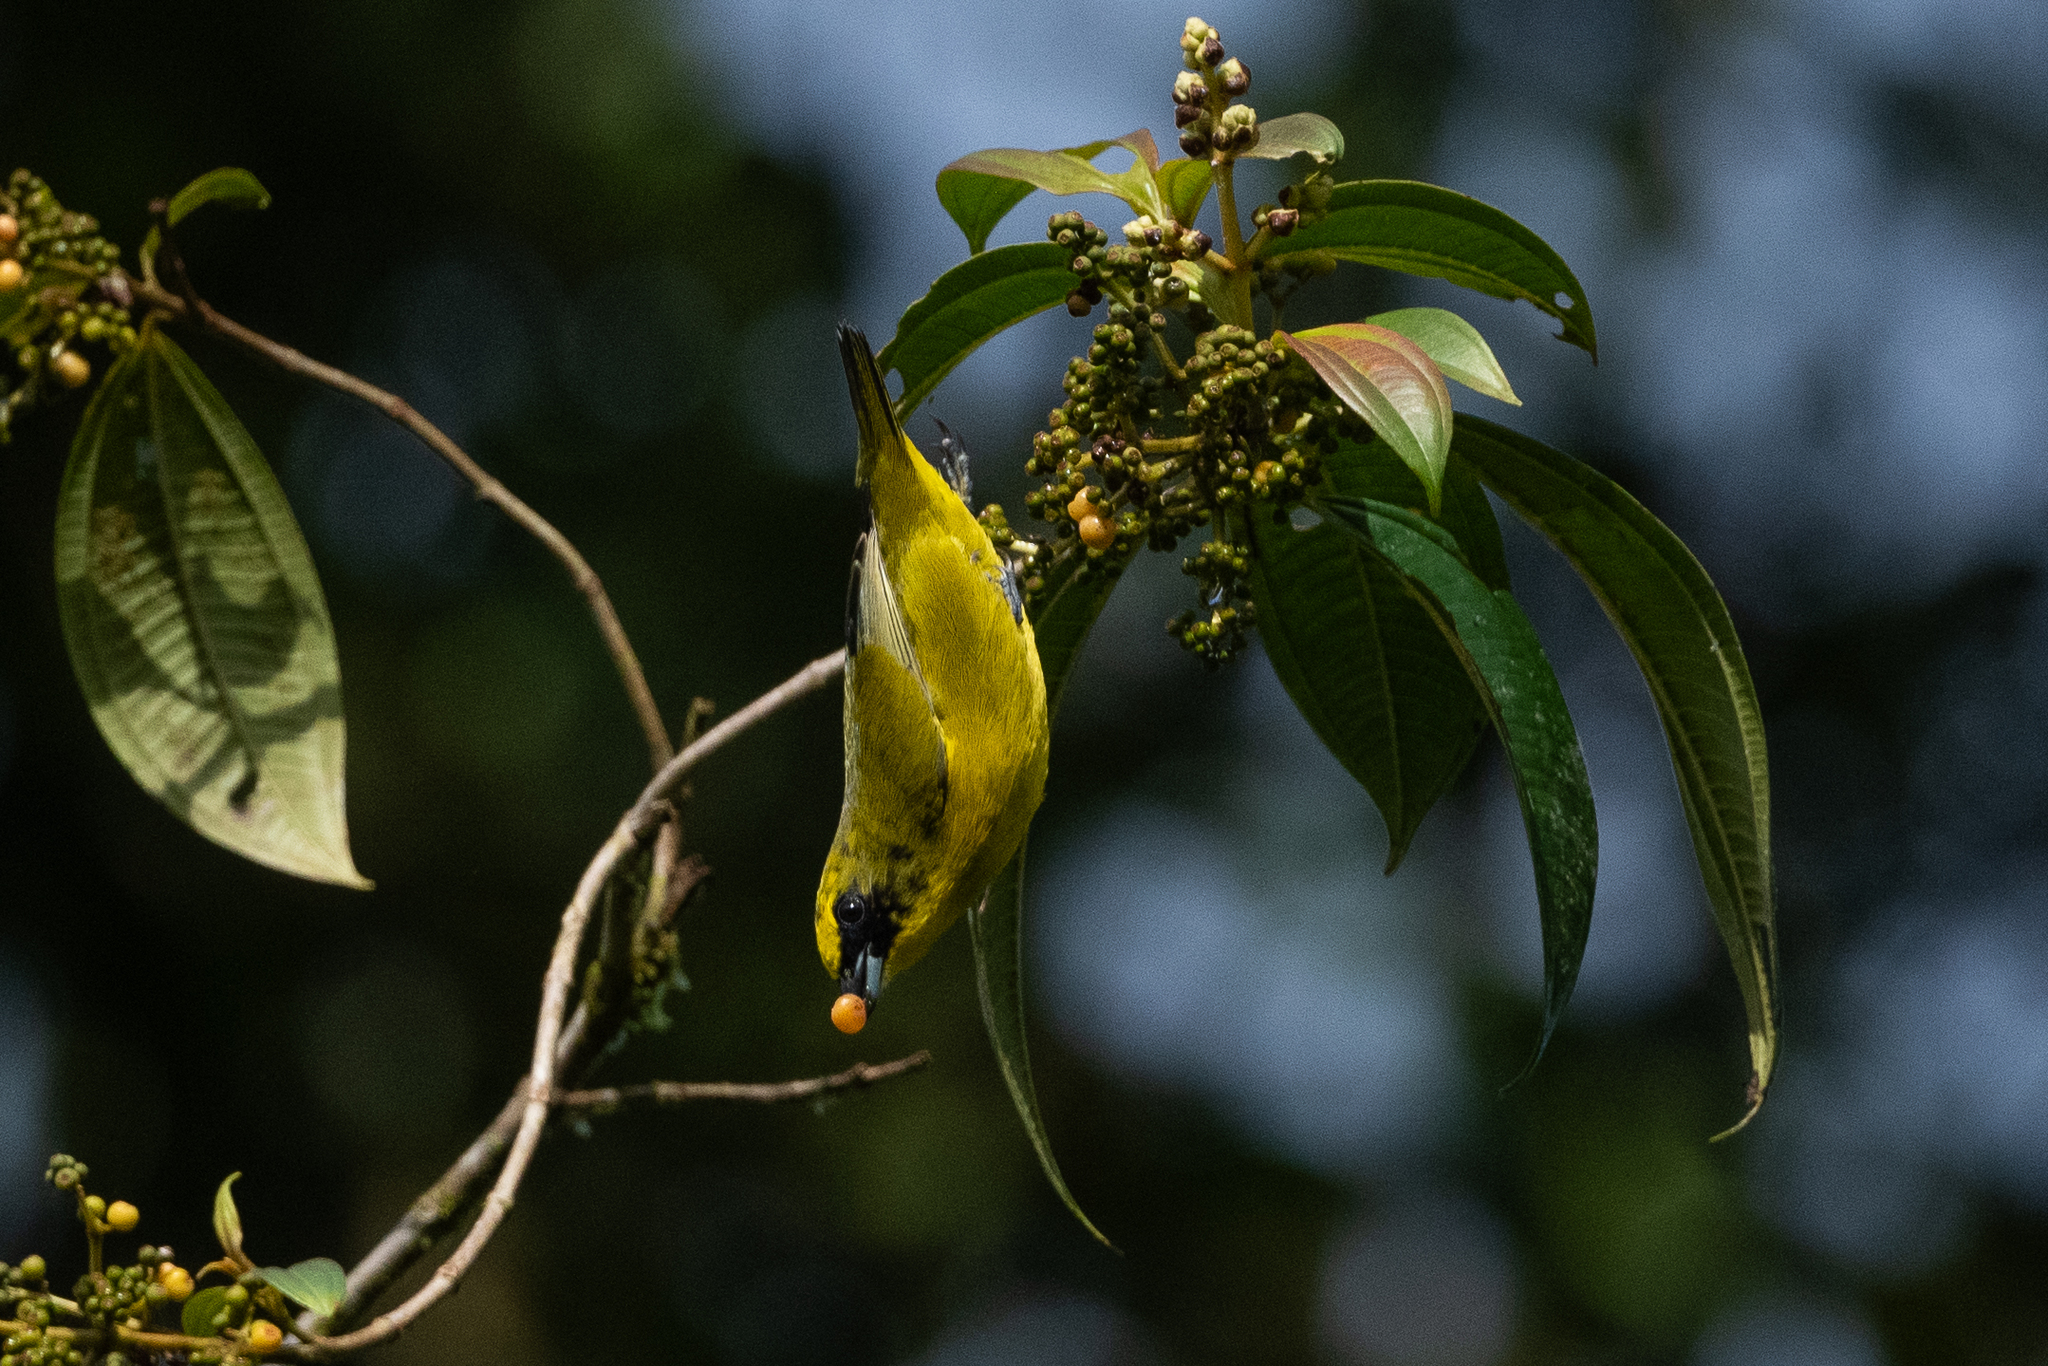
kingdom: Animalia
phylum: Chordata
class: Aves
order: Passeriformes
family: Fringillidae
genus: Euphonia
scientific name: Euphonia laniirostris
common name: Thick-billed euphonia
